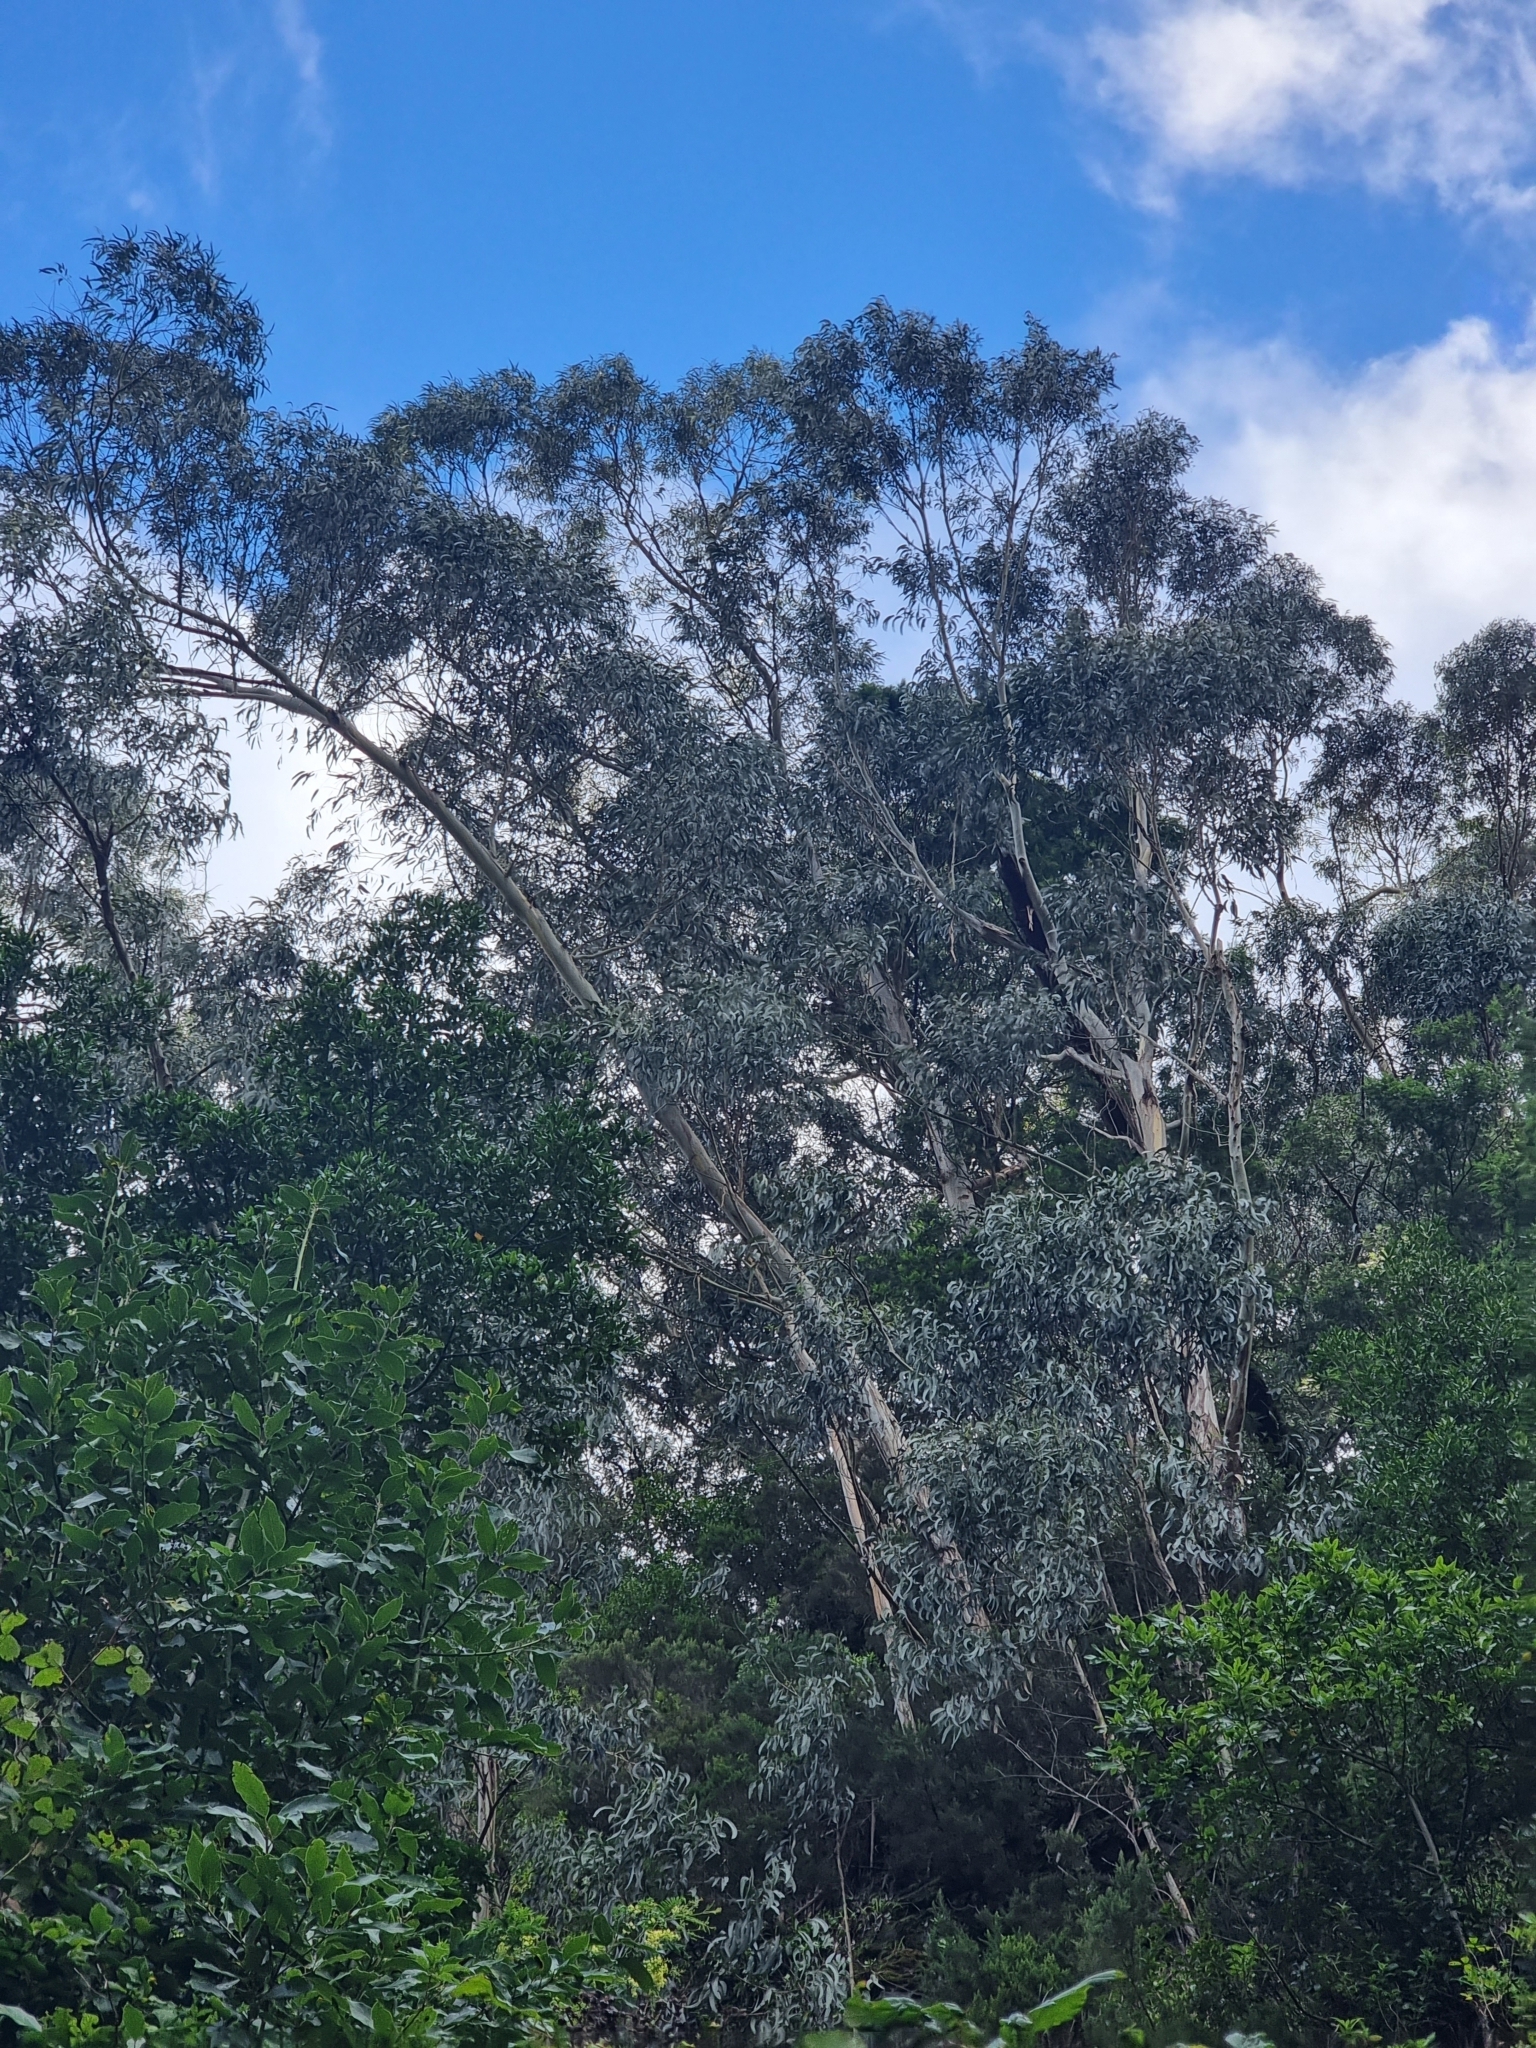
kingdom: Plantae
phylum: Tracheophyta
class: Magnoliopsida
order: Myrtales
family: Myrtaceae
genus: Eucalyptus
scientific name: Eucalyptus globulus
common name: Southern blue-gum
